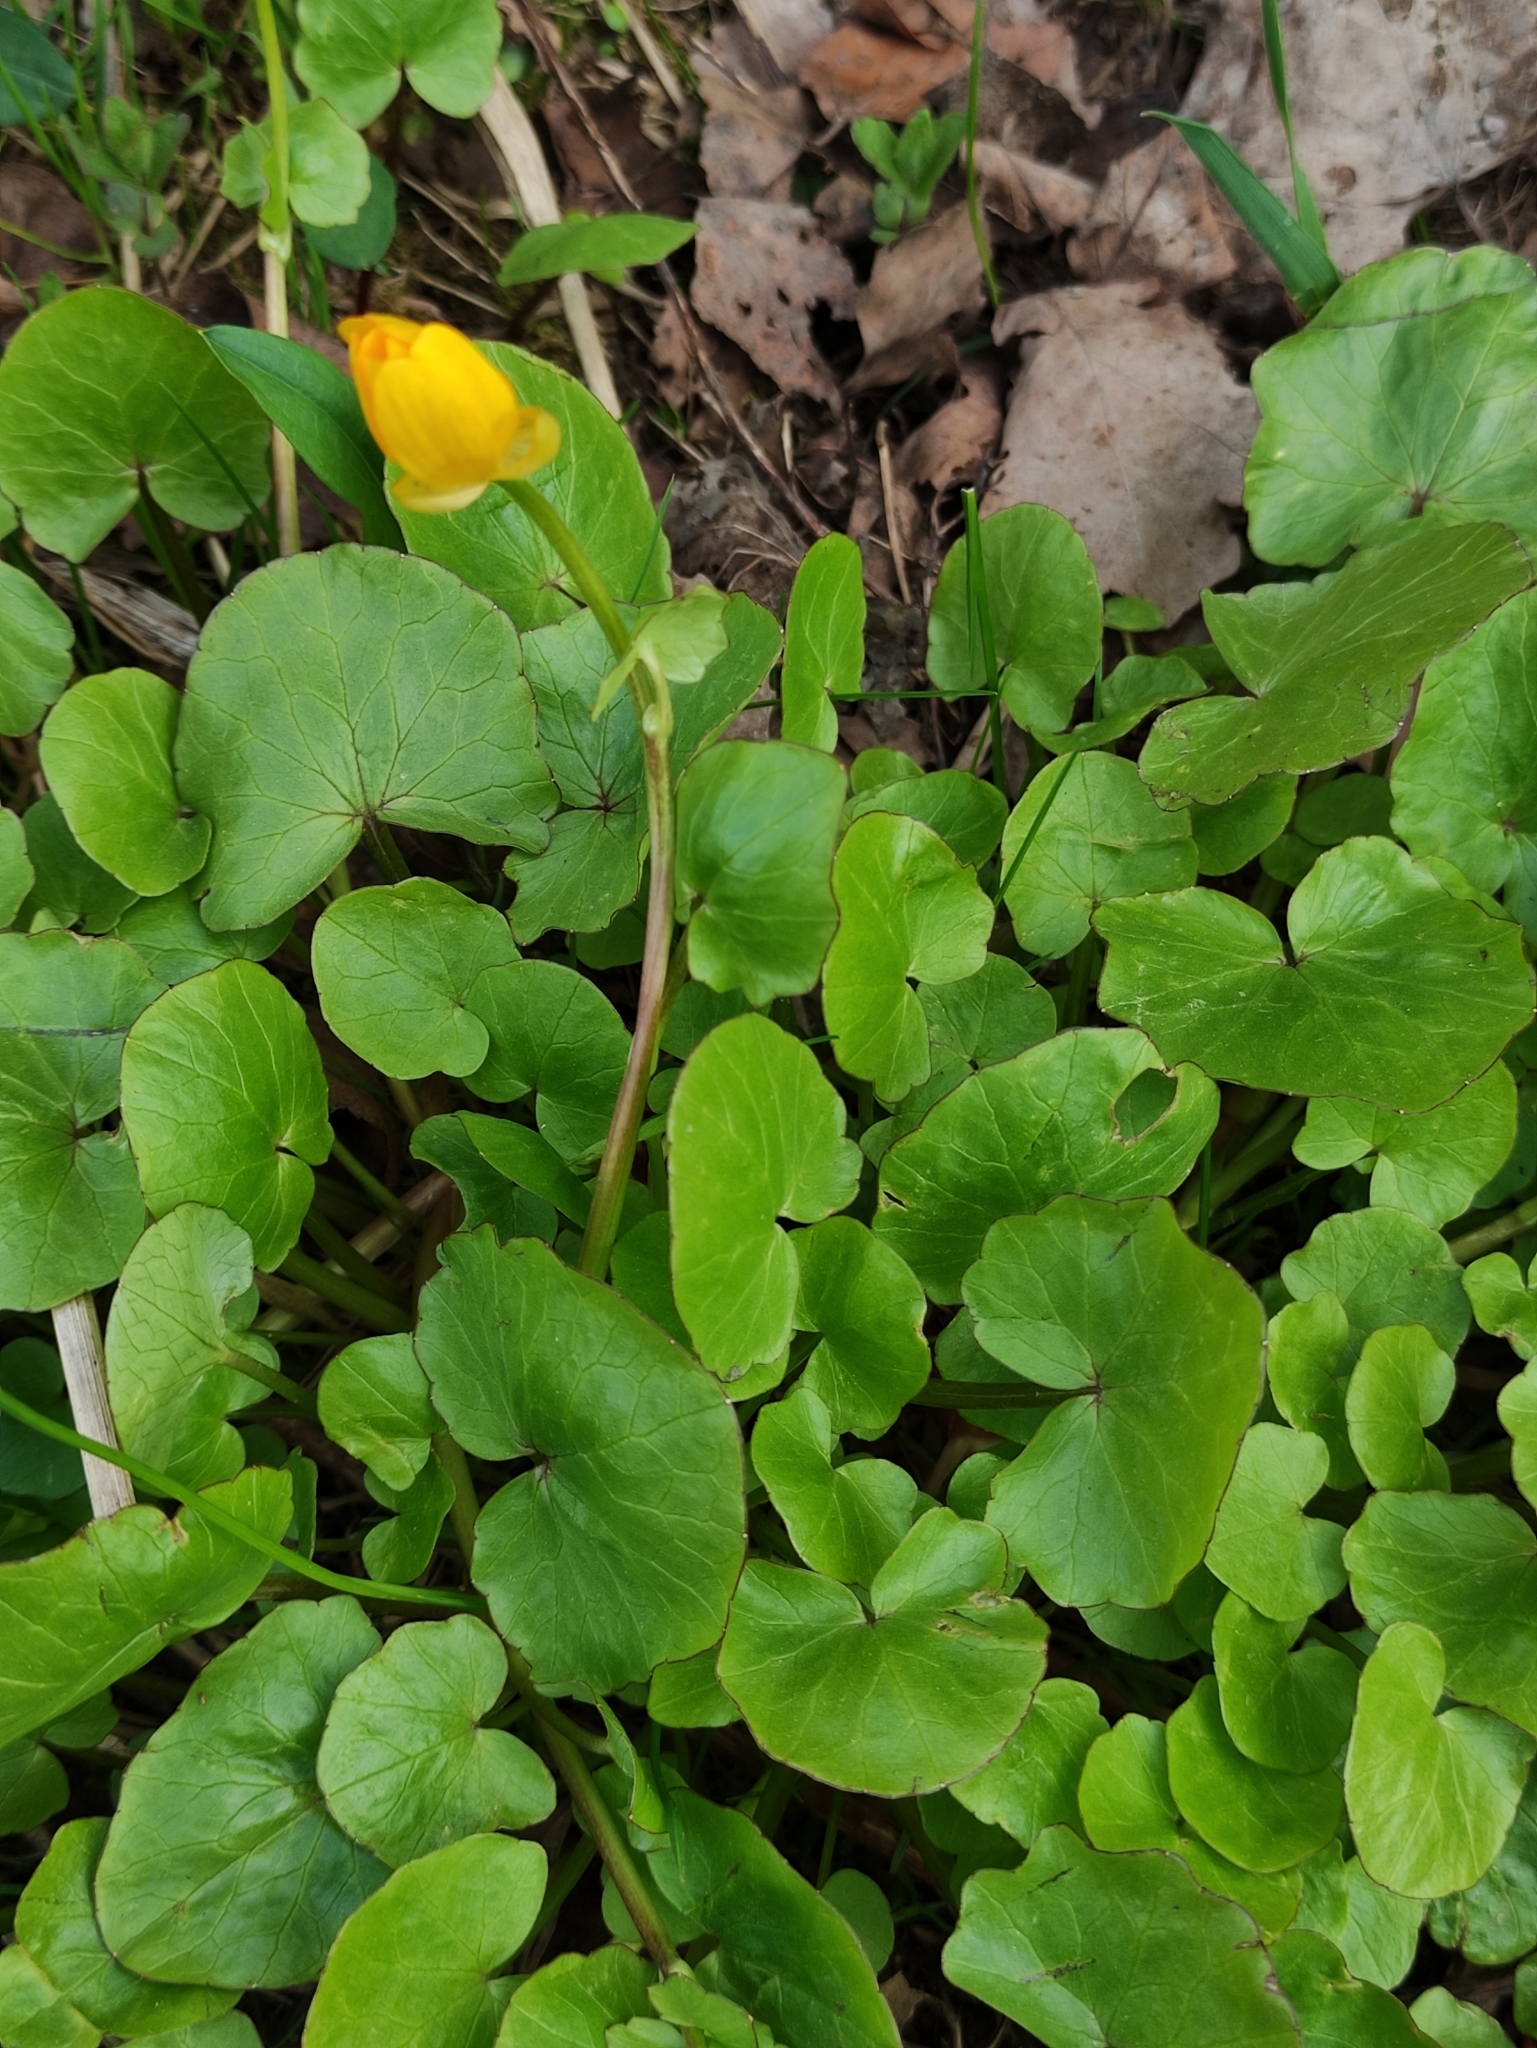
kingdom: Plantae
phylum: Tracheophyta
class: Magnoliopsida
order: Ranunculales
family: Ranunculaceae
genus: Ficaria
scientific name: Ficaria verna
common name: Lesser celandine
